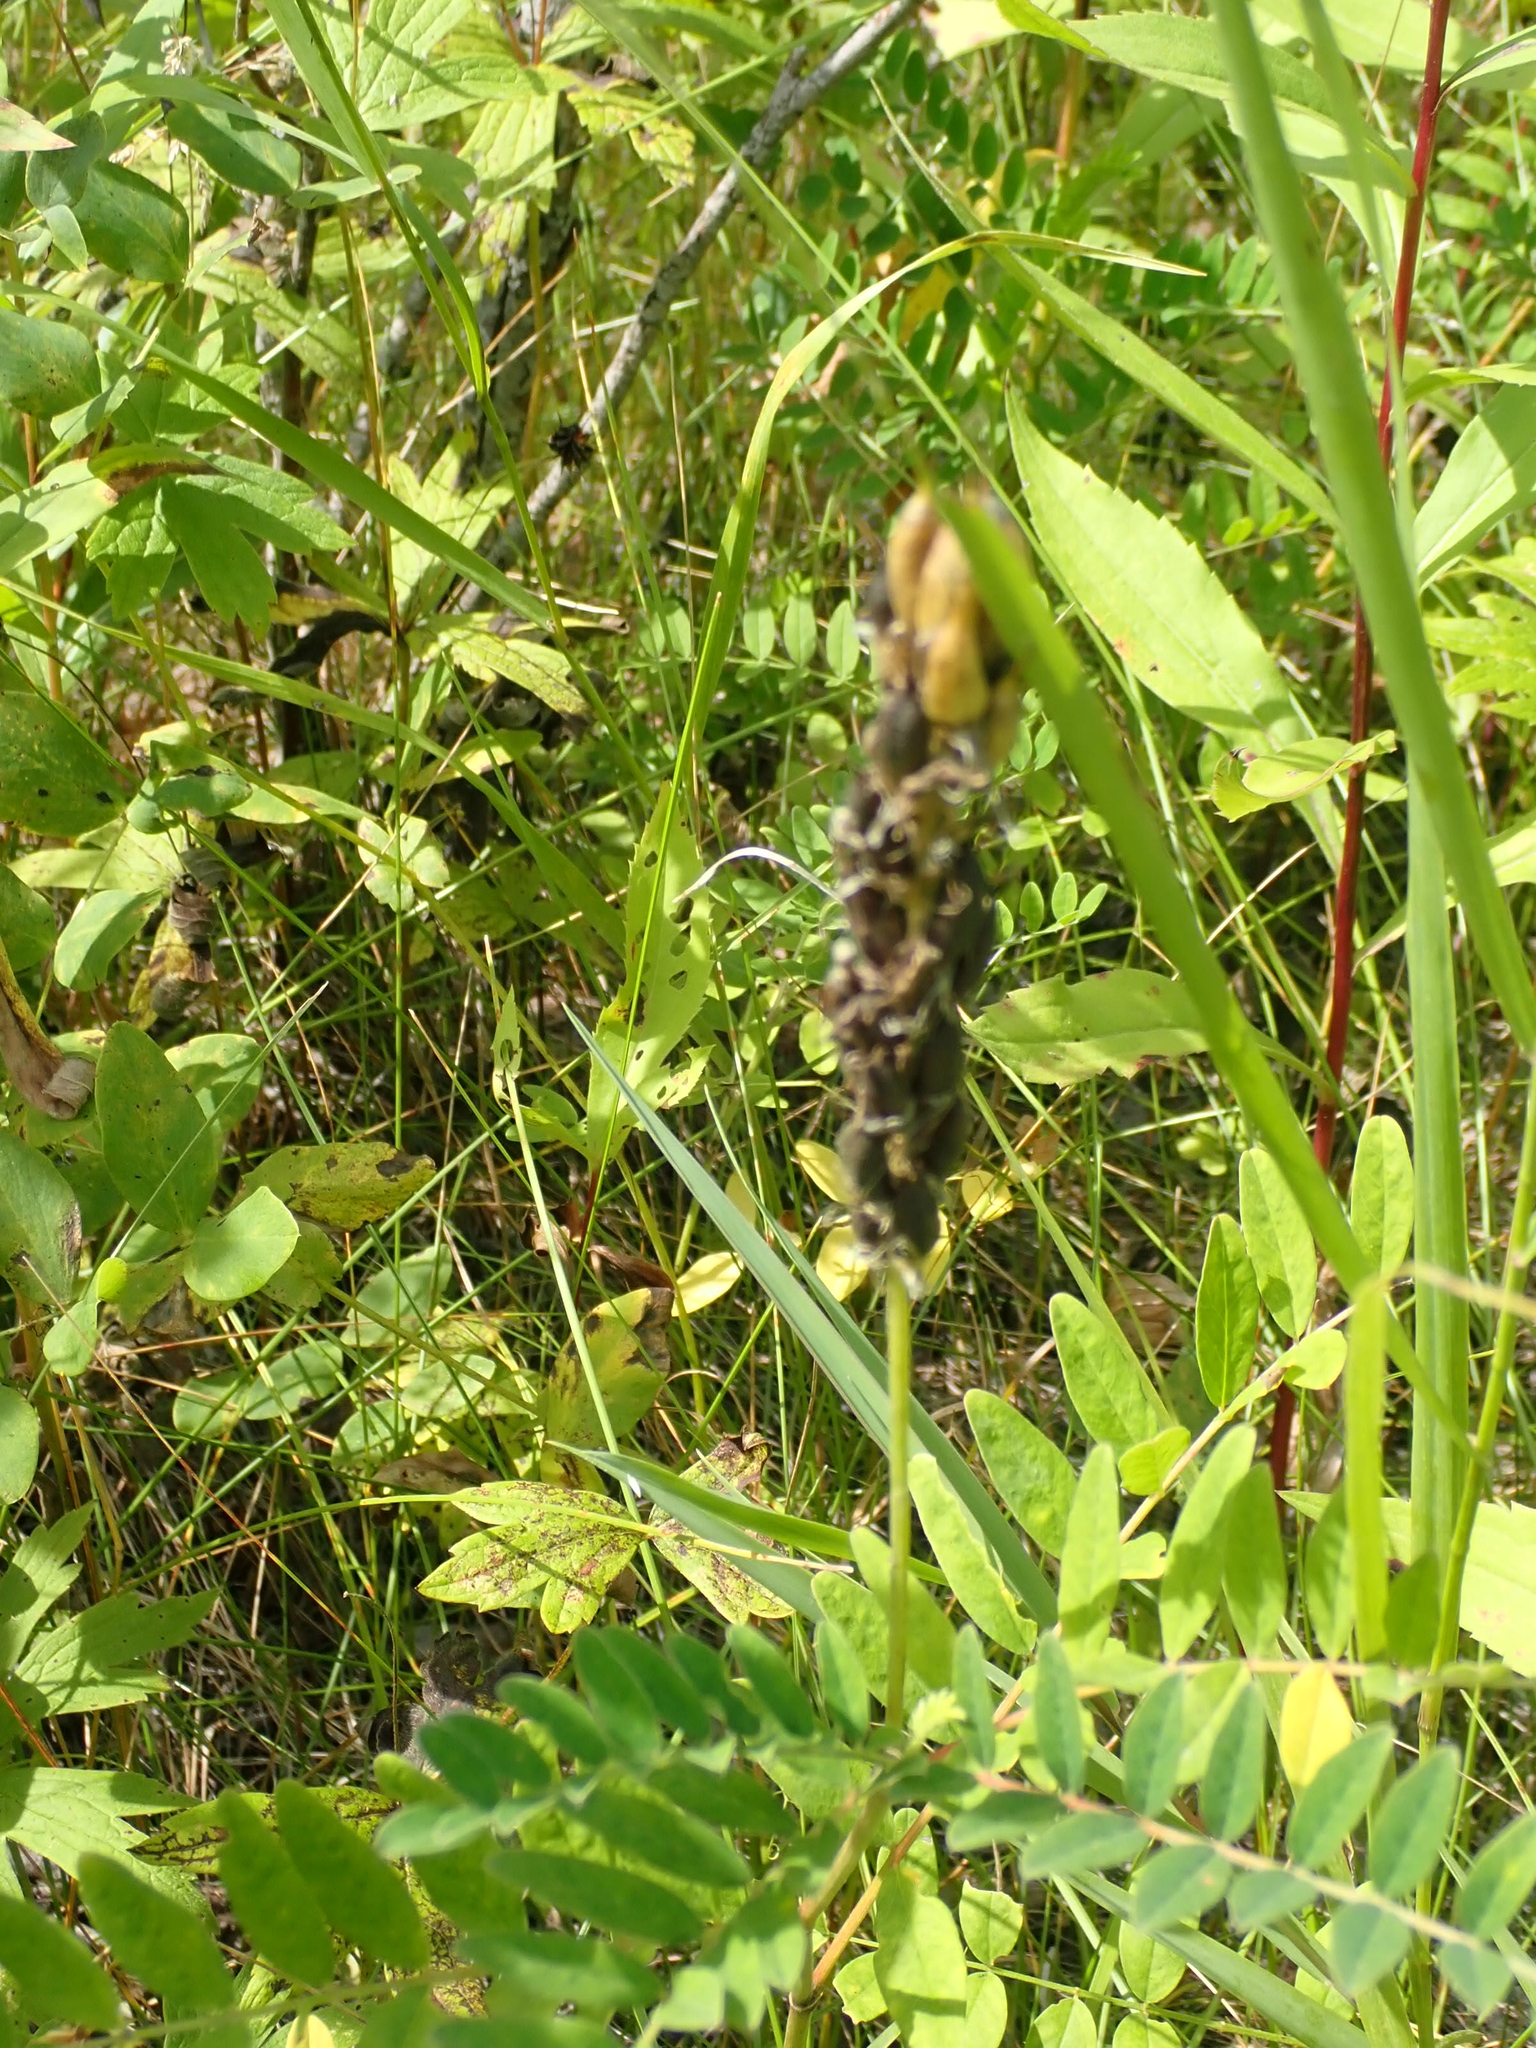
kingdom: Plantae
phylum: Tracheophyta
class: Magnoliopsida
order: Fabales
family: Fabaceae
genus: Astragalus
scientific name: Astragalus canadensis
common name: Canada milk-vetch
